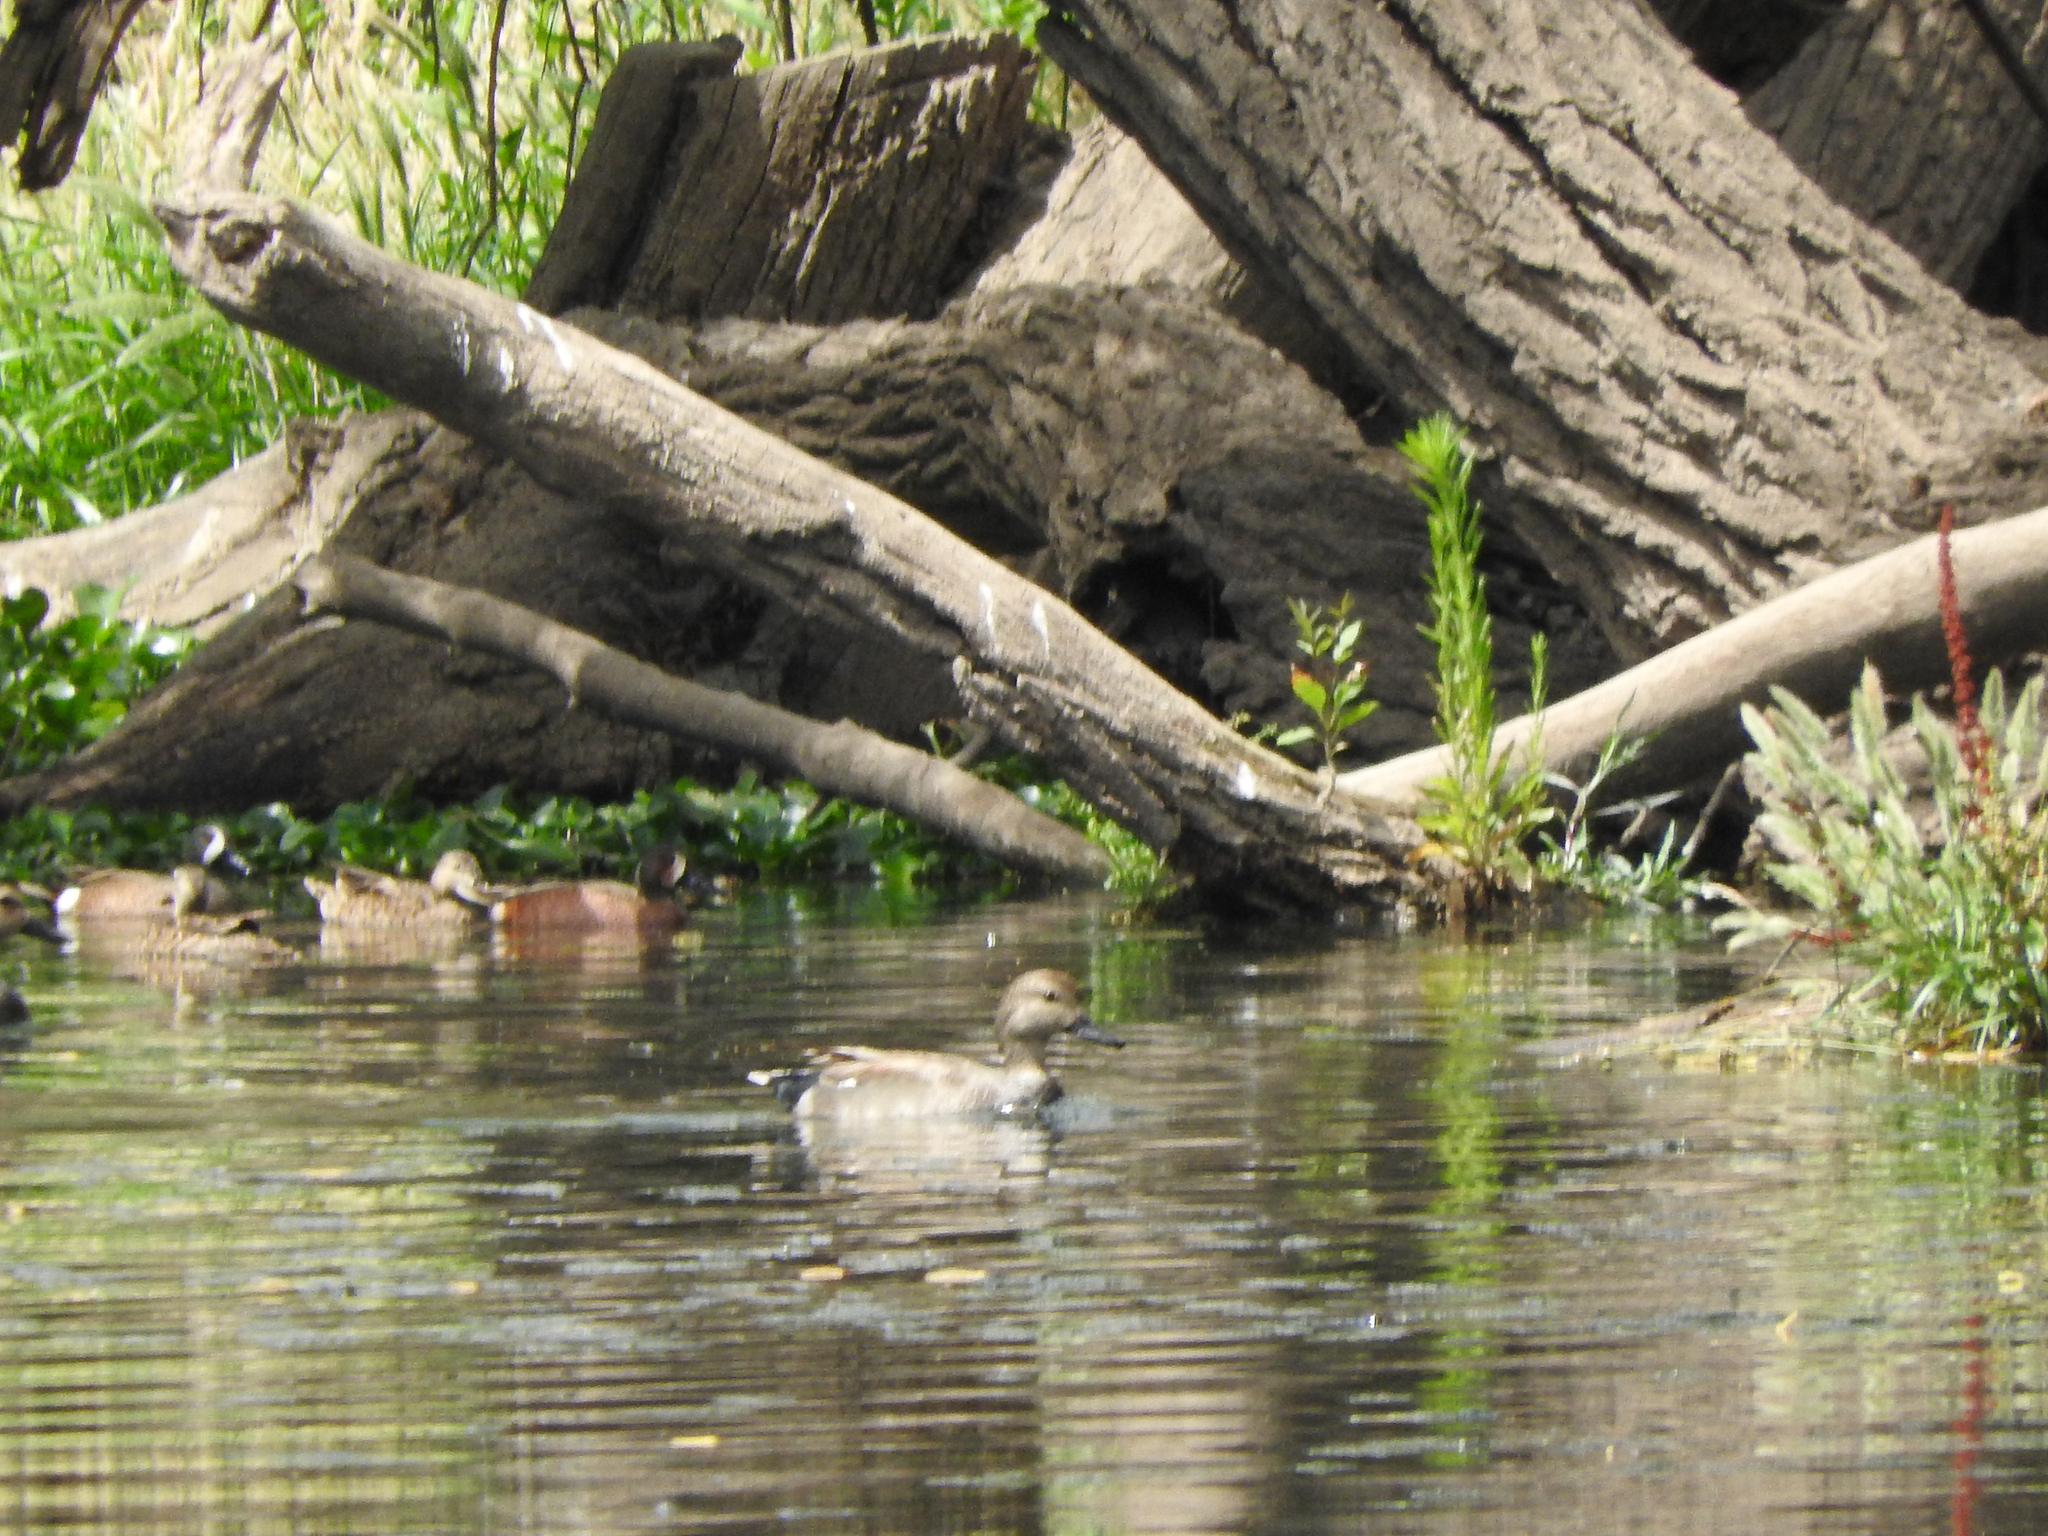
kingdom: Animalia
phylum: Chordata
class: Aves
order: Anseriformes
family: Anatidae
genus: Mareca
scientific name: Mareca strepera
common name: Gadwall
